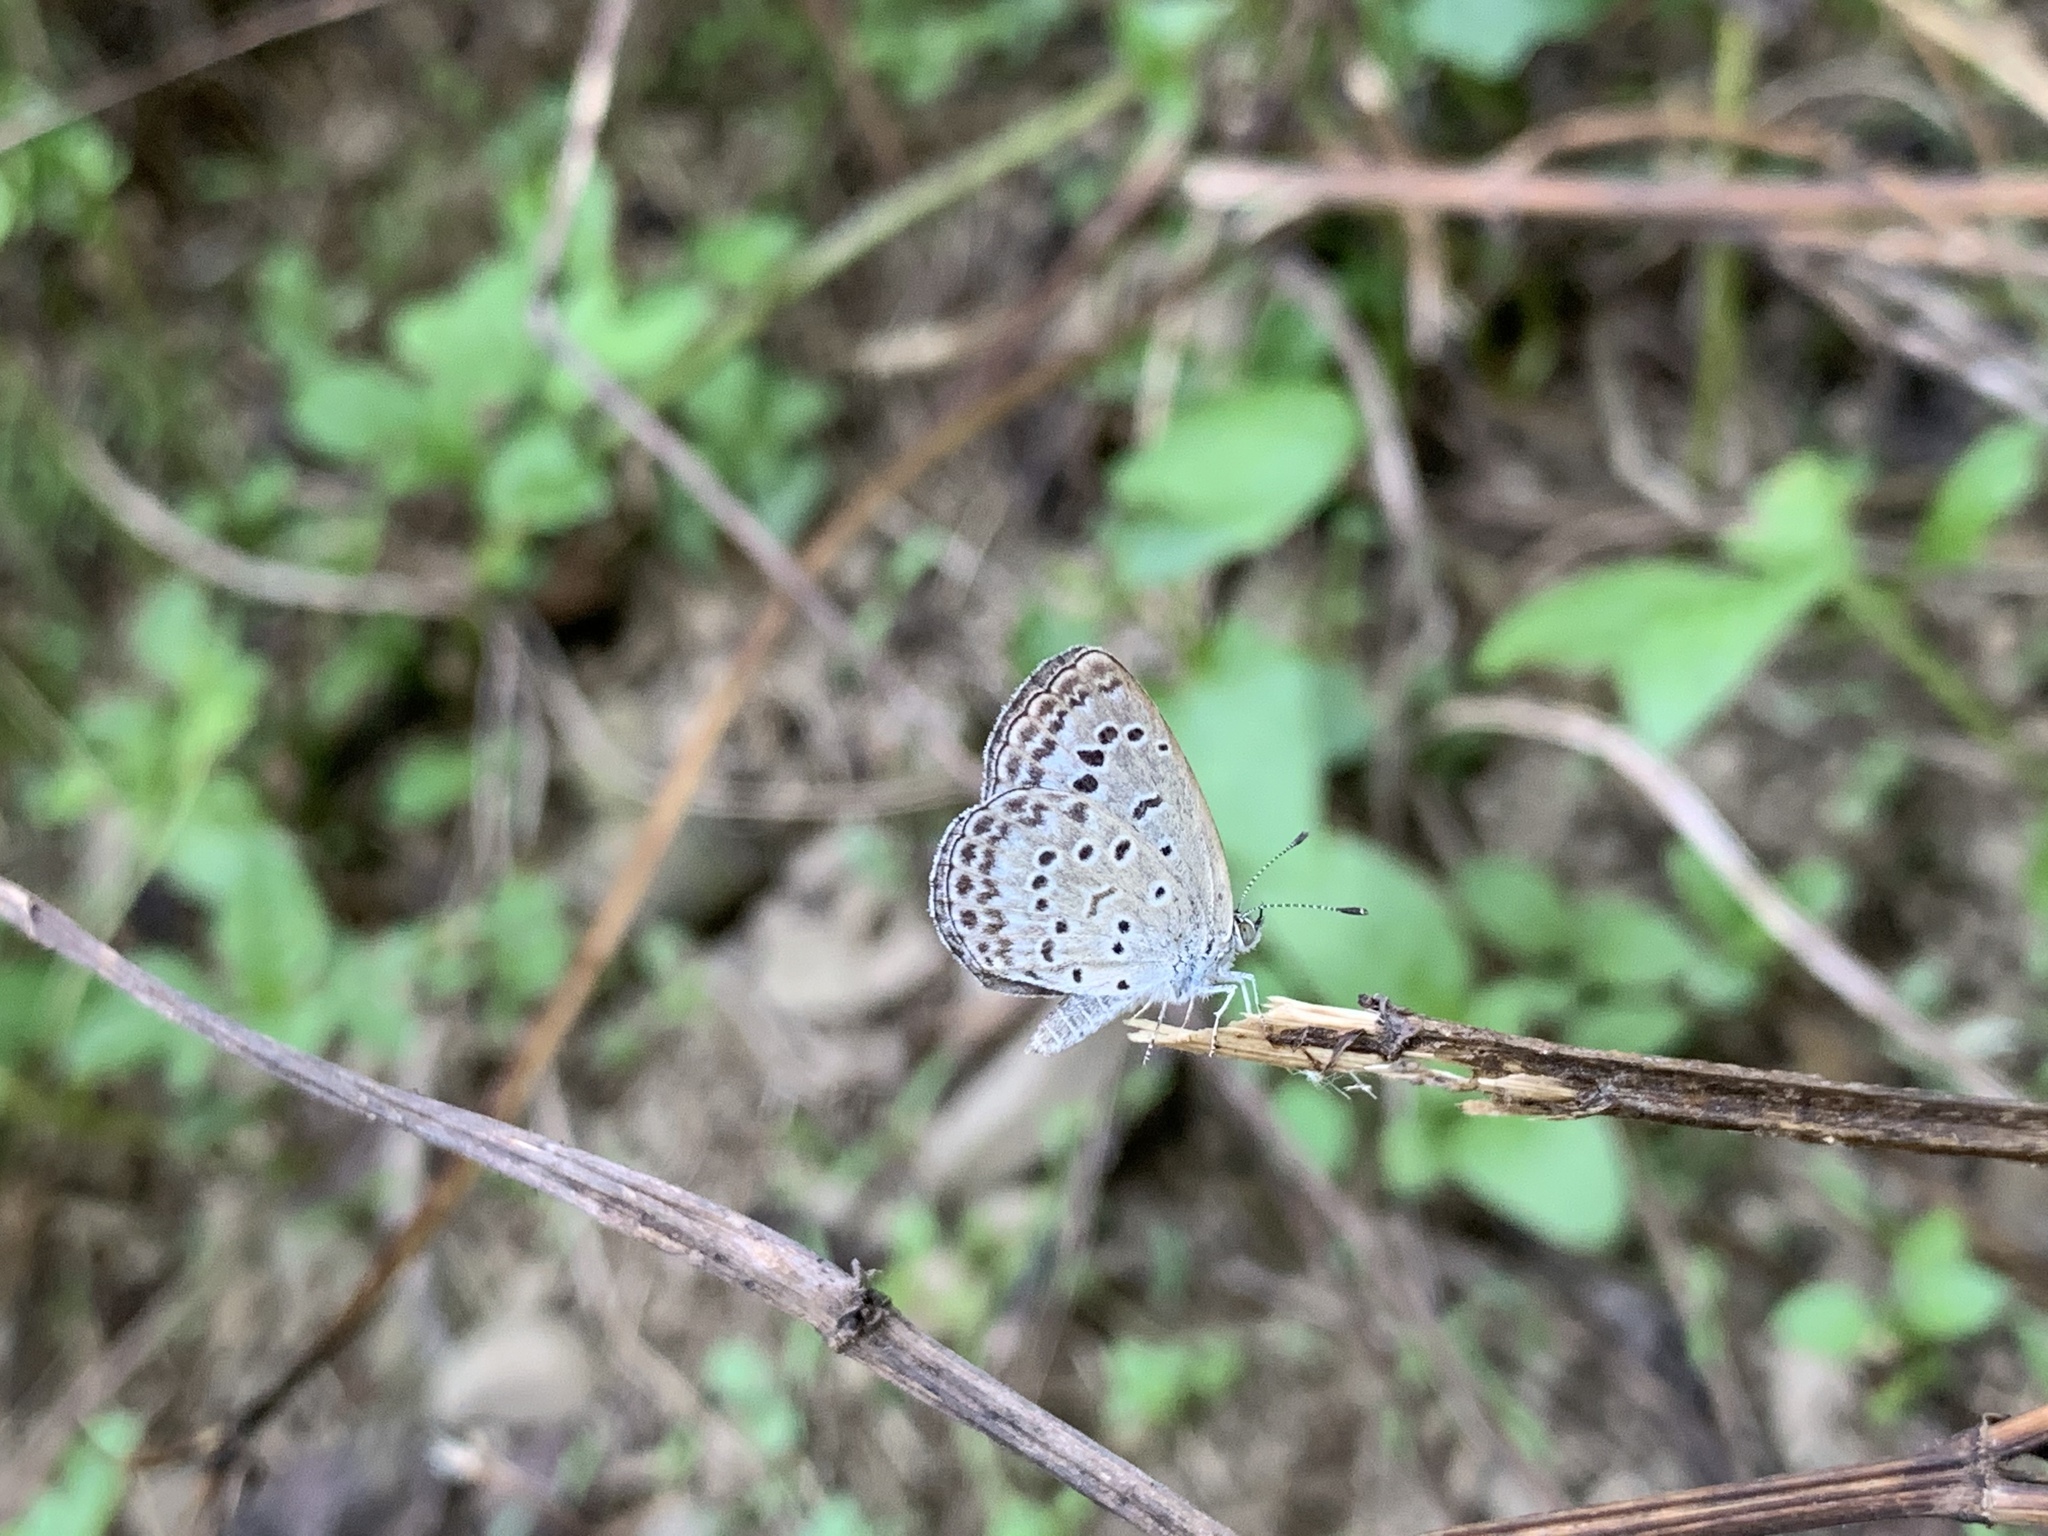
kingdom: Animalia
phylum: Arthropoda
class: Insecta
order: Lepidoptera
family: Lycaenidae
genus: Pseudozizeeria
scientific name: Pseudozizeeria maha
